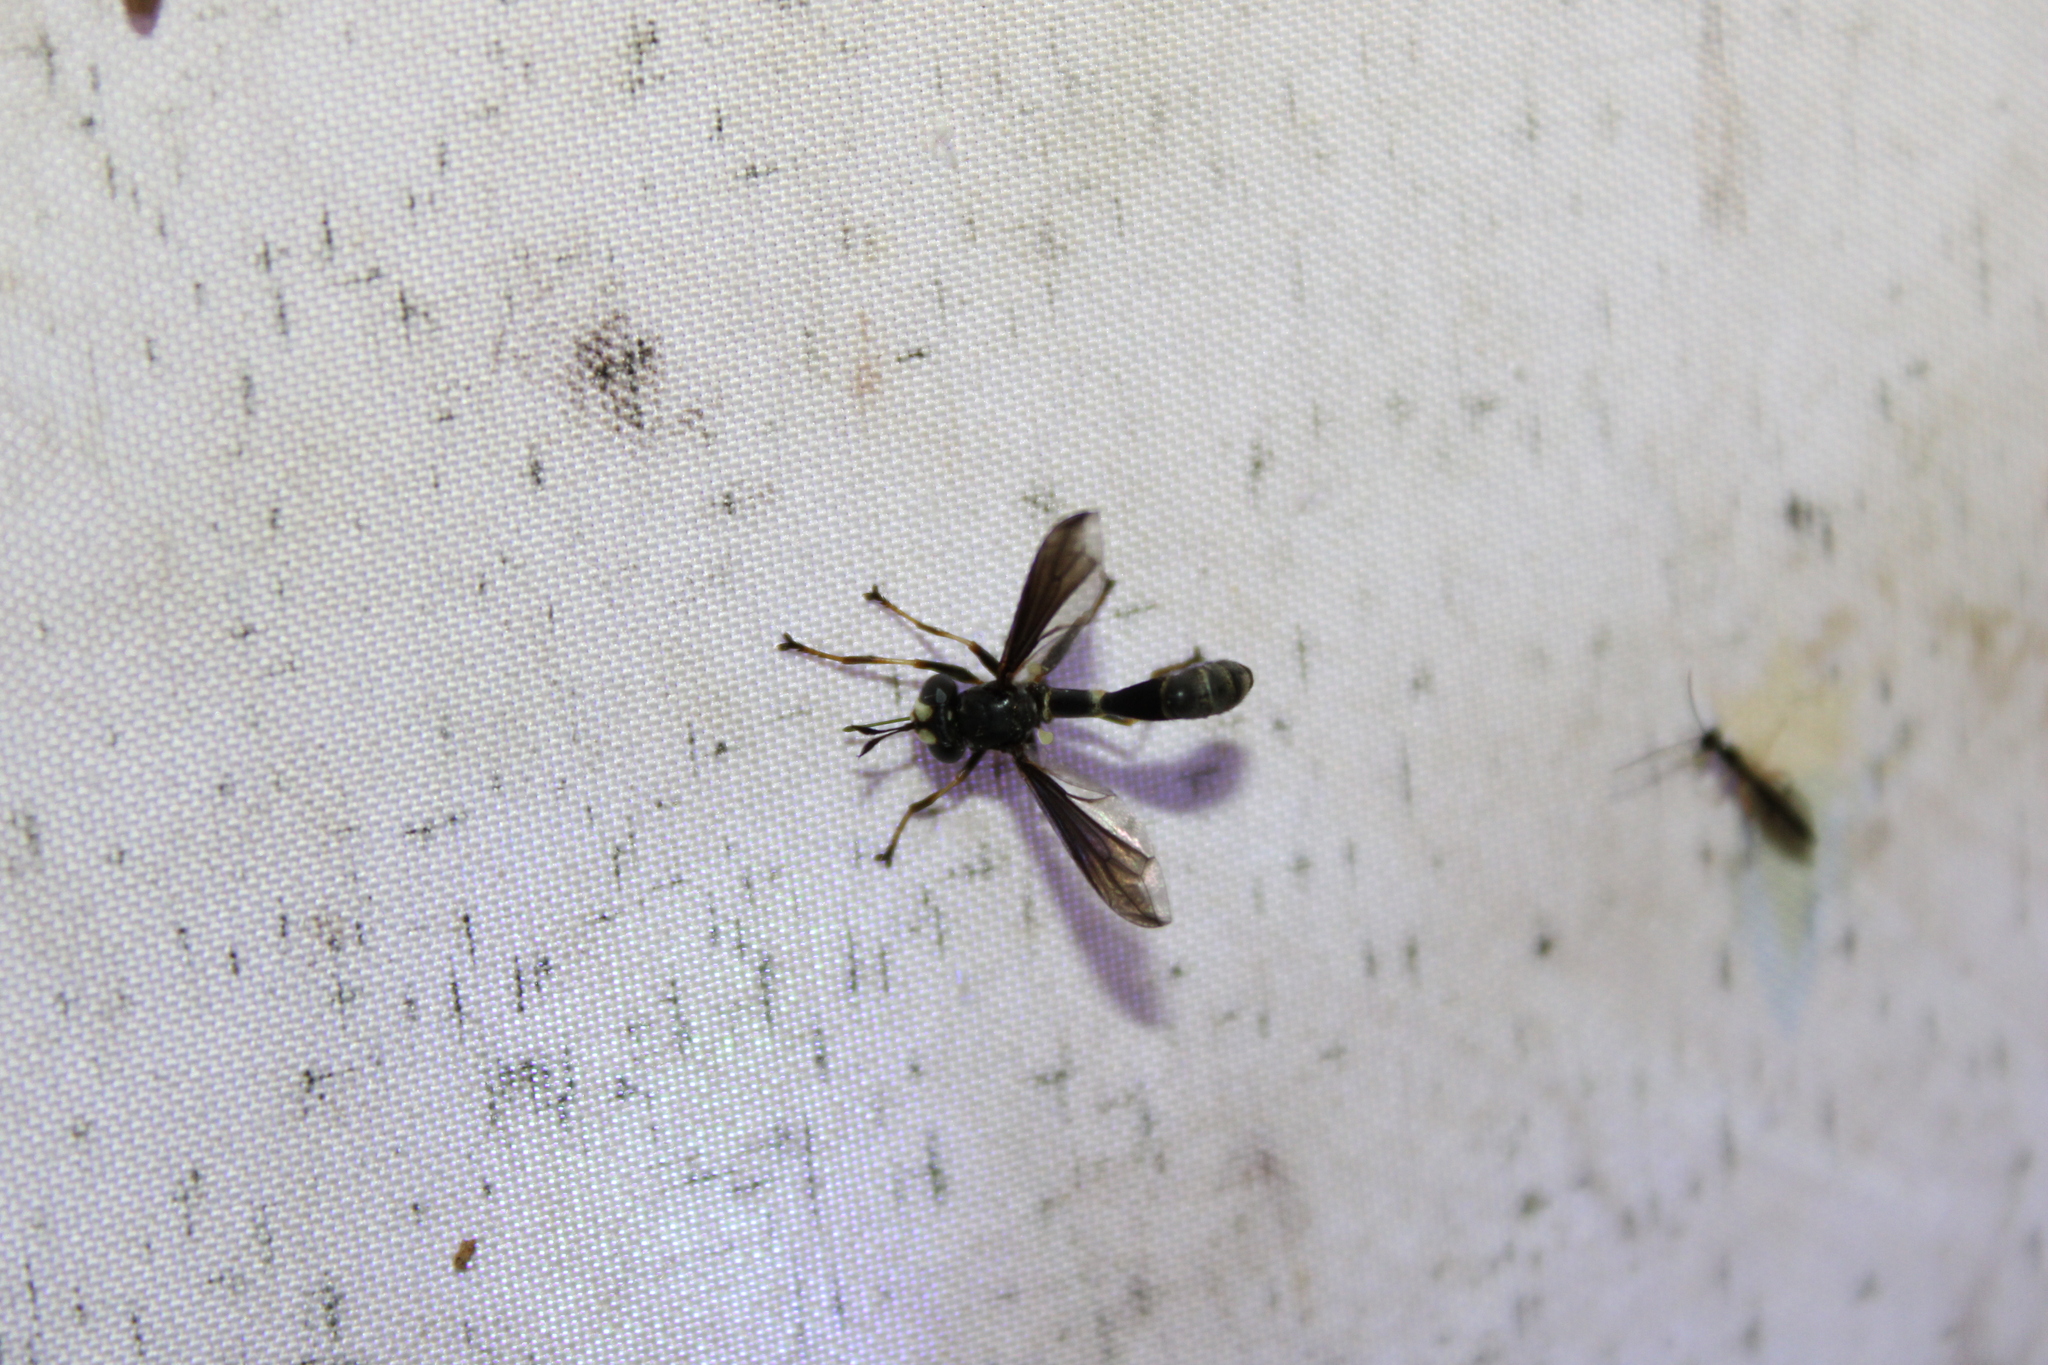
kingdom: Animalia
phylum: Arthropoda
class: Insecta
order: Diptera
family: Conopidae
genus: Physocephala
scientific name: Physocephala tibialis
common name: Common eastern physocephala
